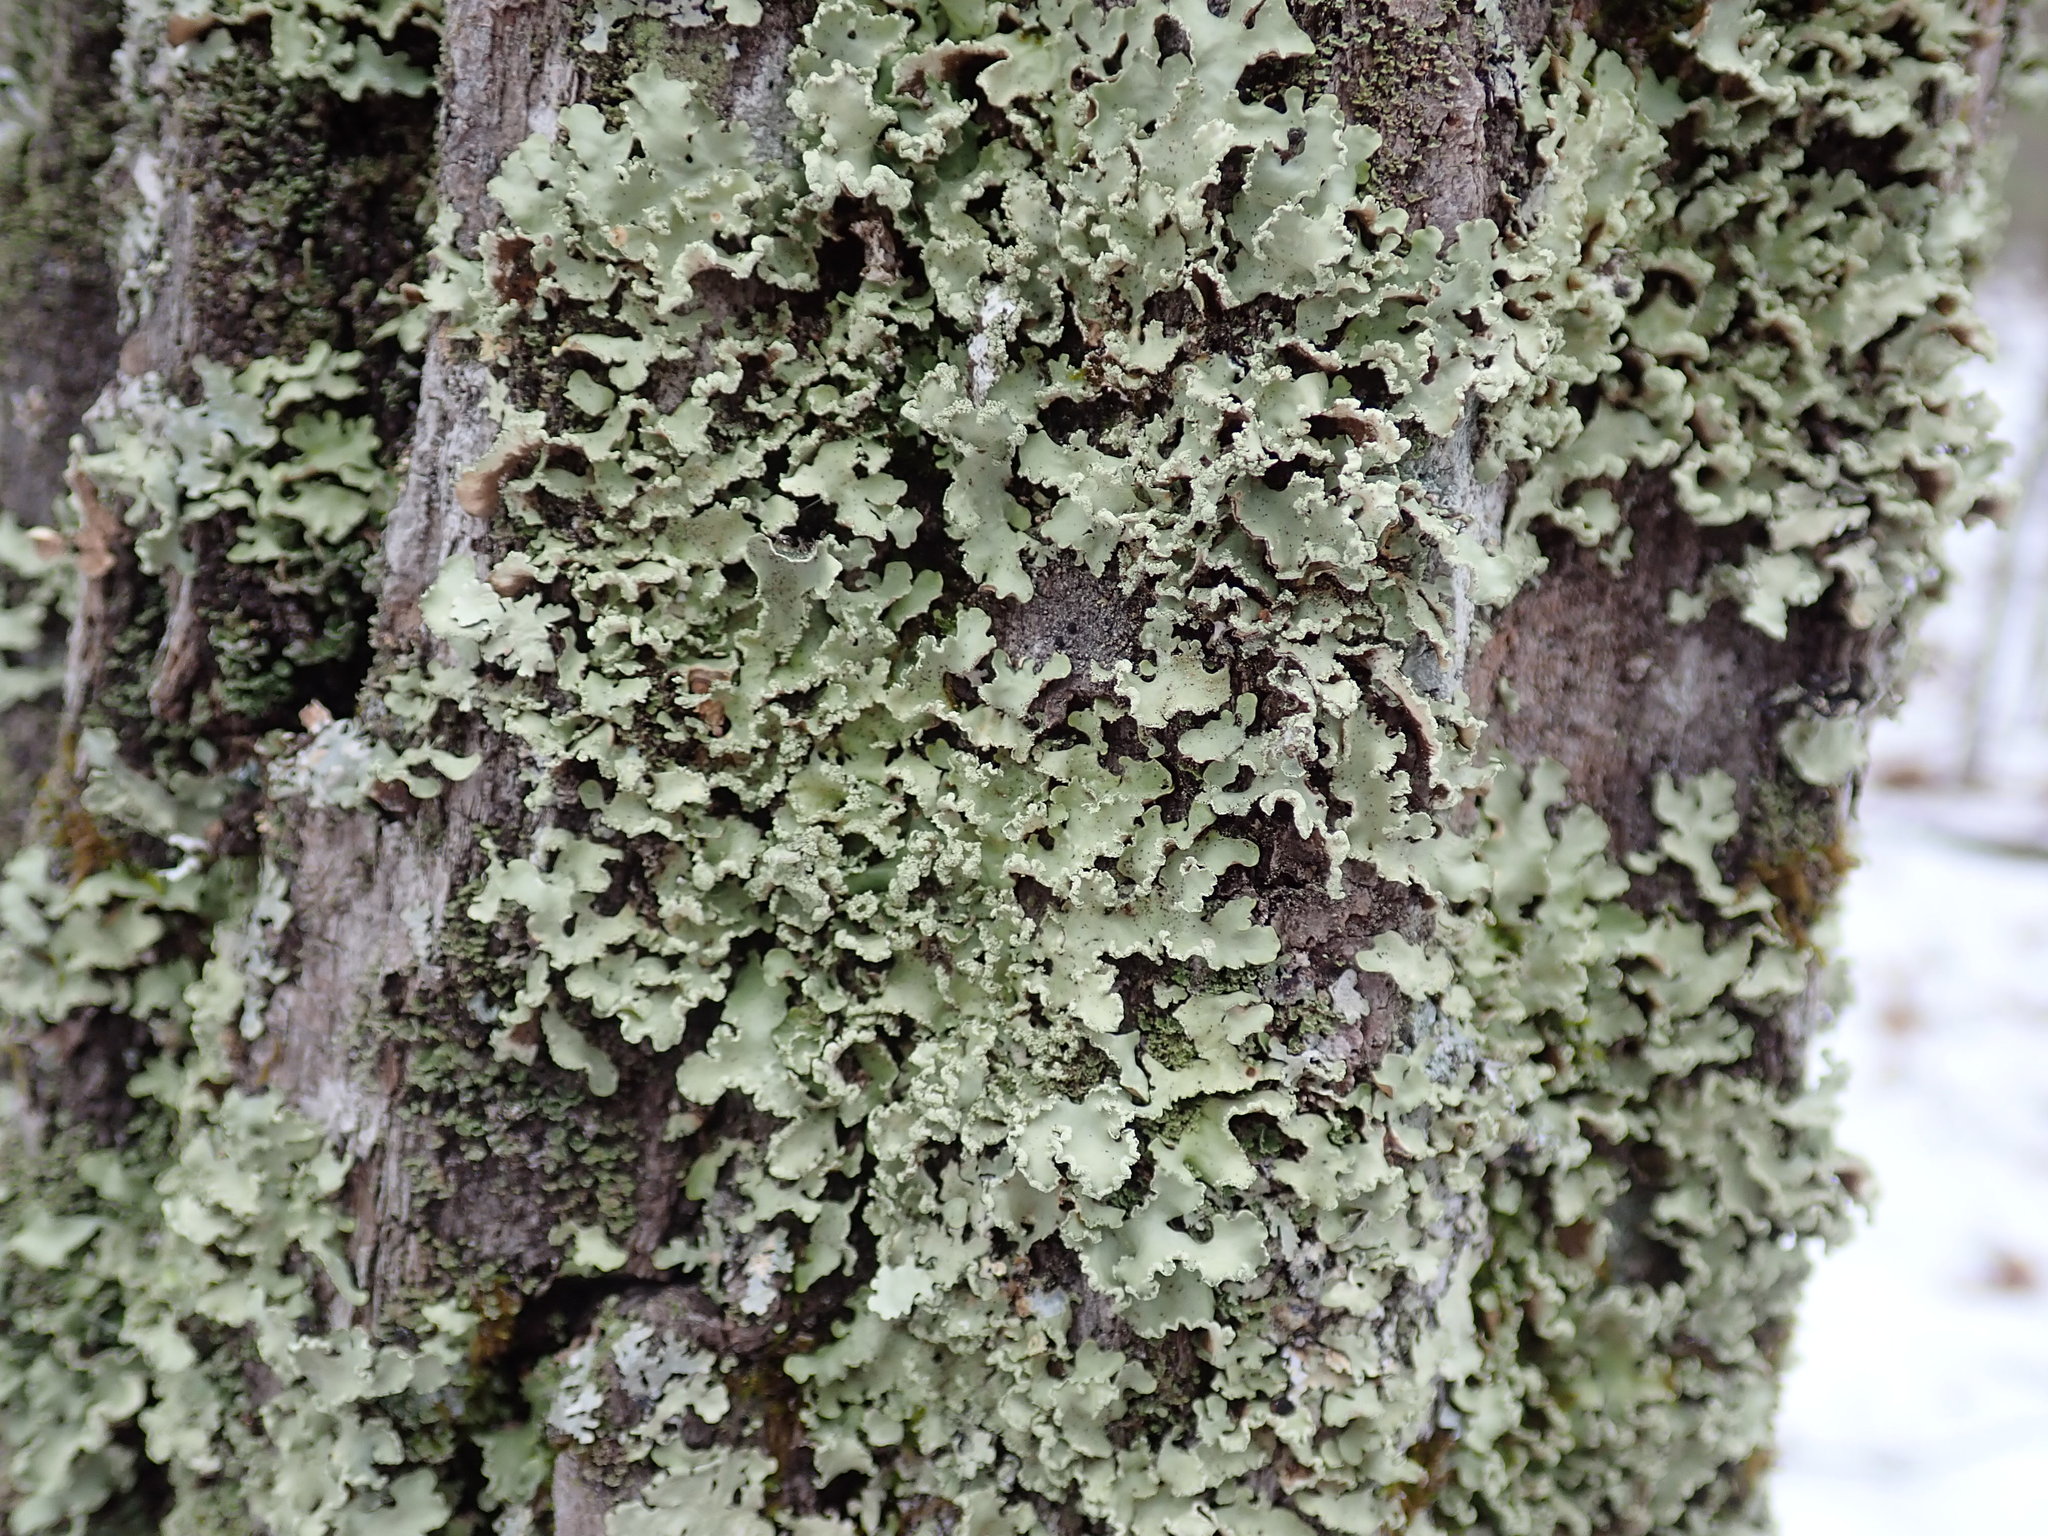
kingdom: Fungi
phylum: Ascomycota
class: Lecanoromycetes
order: Lecanorales
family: Parmeliaceae
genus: Usnocetraria
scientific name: Usnocetraria oakesiana
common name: Yellow ribbon lichen
